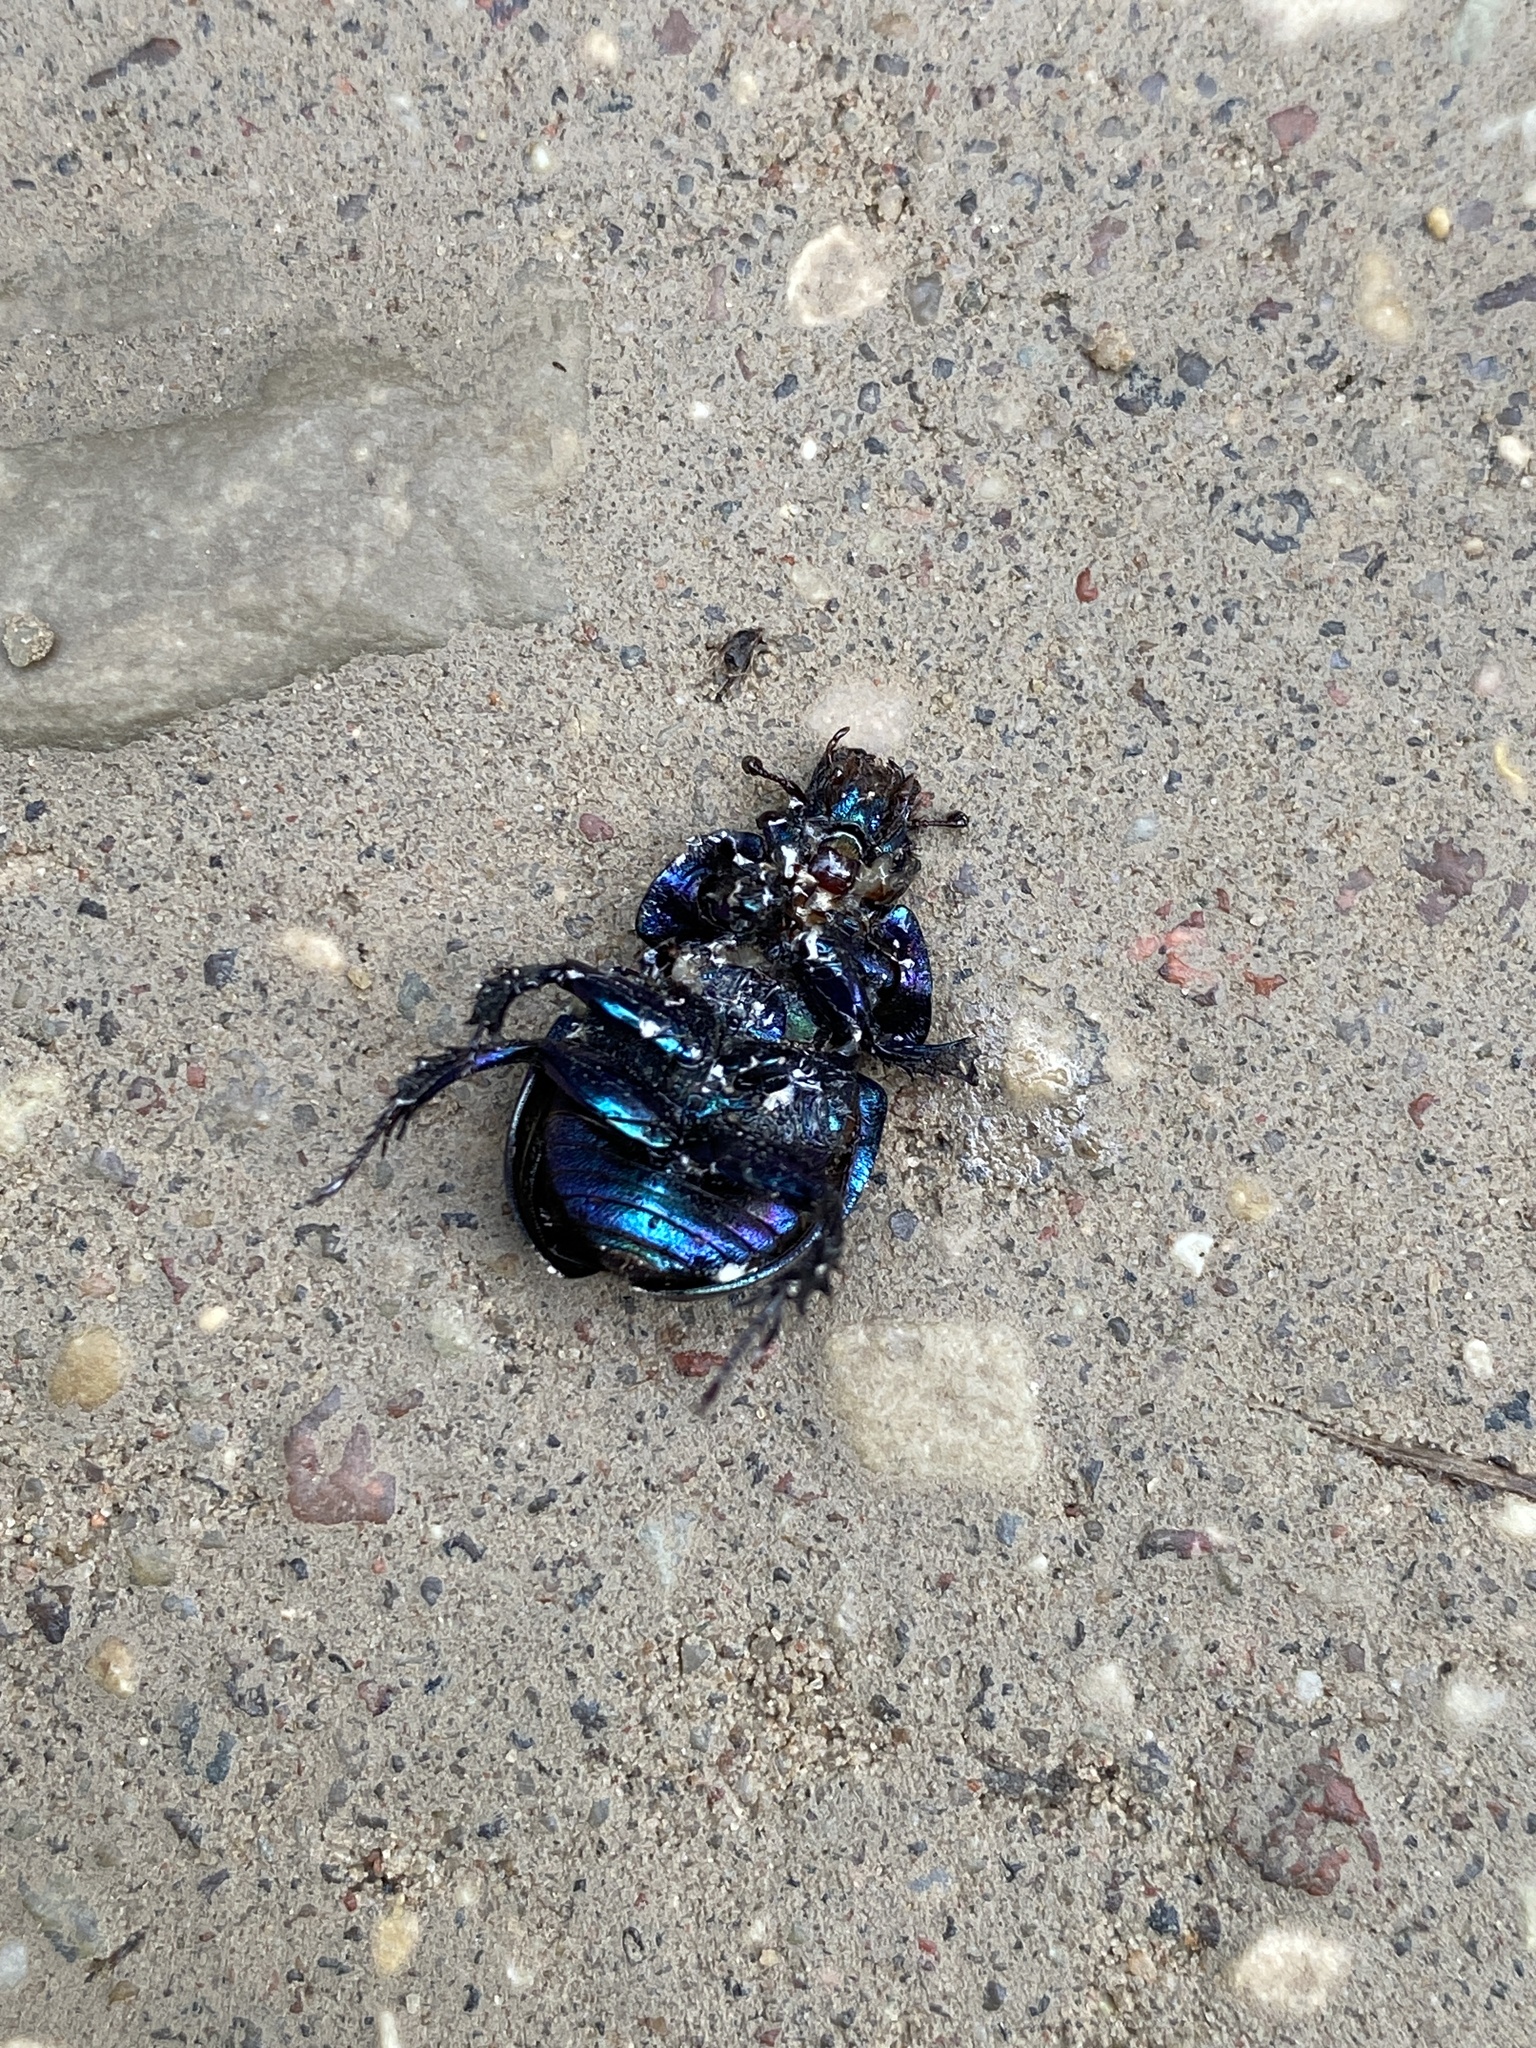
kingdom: Animalia
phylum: Arthropoda
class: Insecta
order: Coleoptera
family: Geotrupidae
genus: Anoplotrupes
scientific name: Anoplotrupes stercorosus
